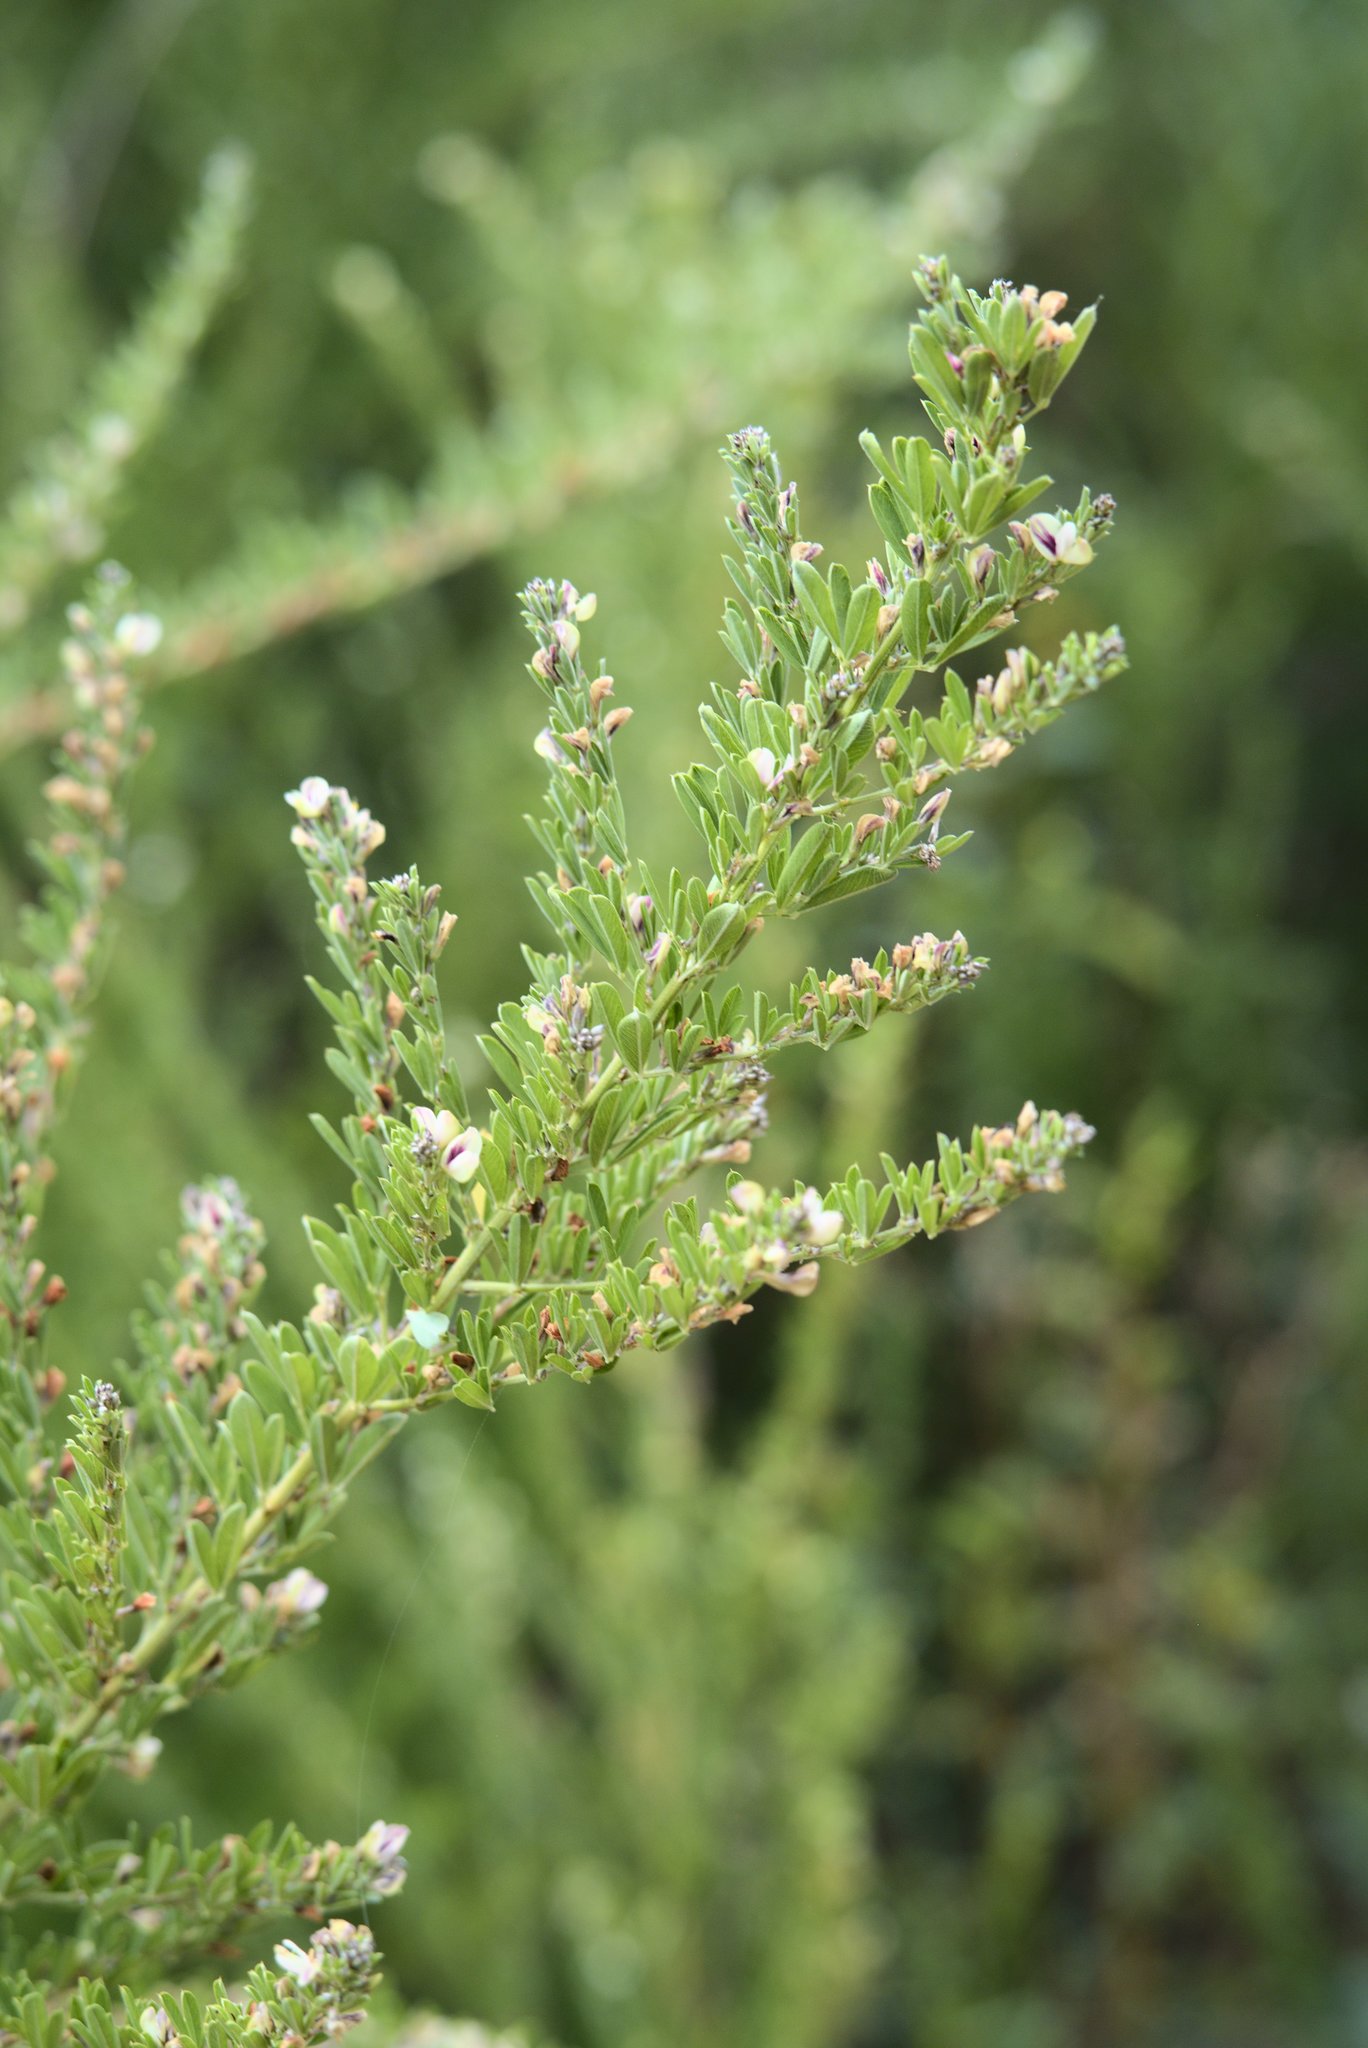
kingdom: Plantae
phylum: Tracheophyta
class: Magnoliopsida
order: Fabales
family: Fabaceae
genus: Lespedeza
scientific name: Lespedeza cuneata
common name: Chinese bush-clover
